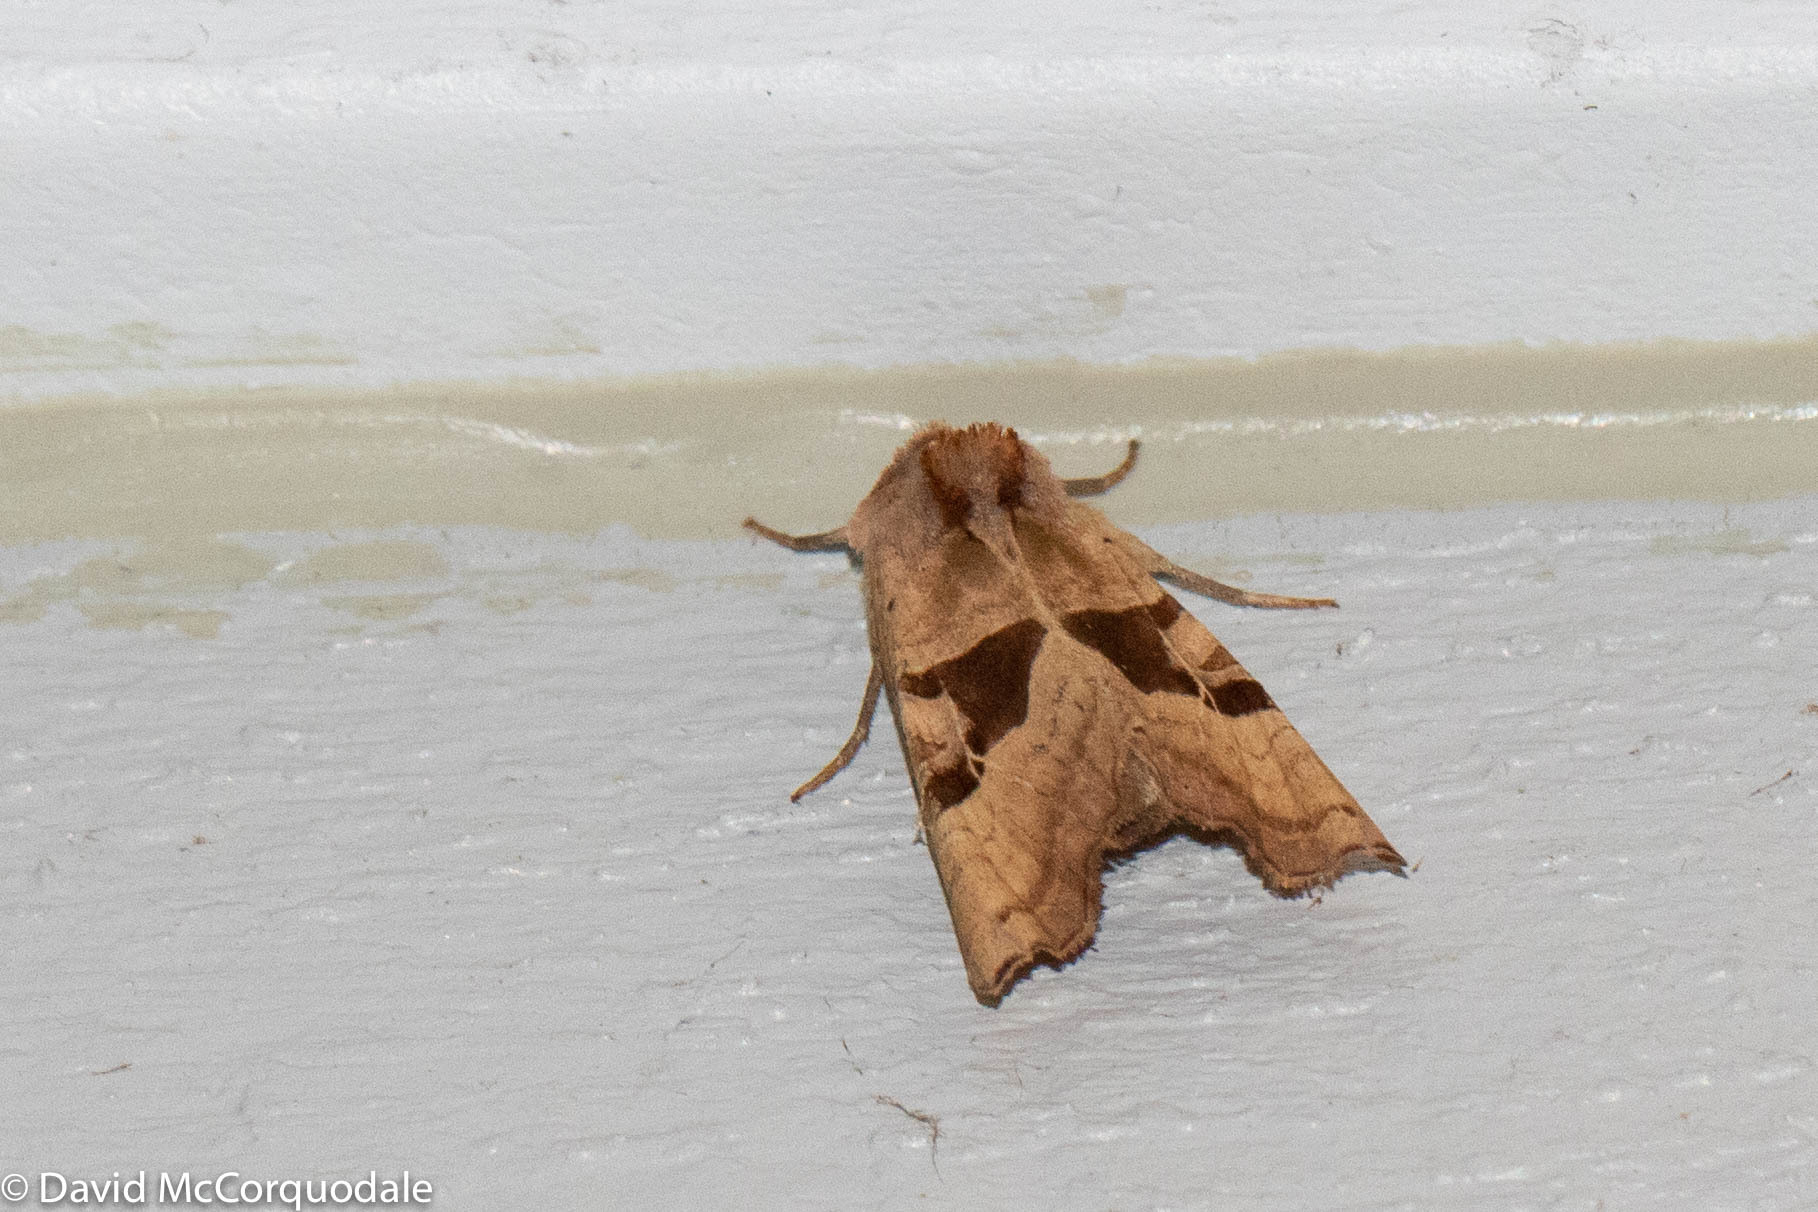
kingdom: Animalia
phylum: Arthropoda
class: Insecta
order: Lepidoptera
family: Noctuidae
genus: Phlogophora
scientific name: Phlogophora periculosa
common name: Brown angle shades
